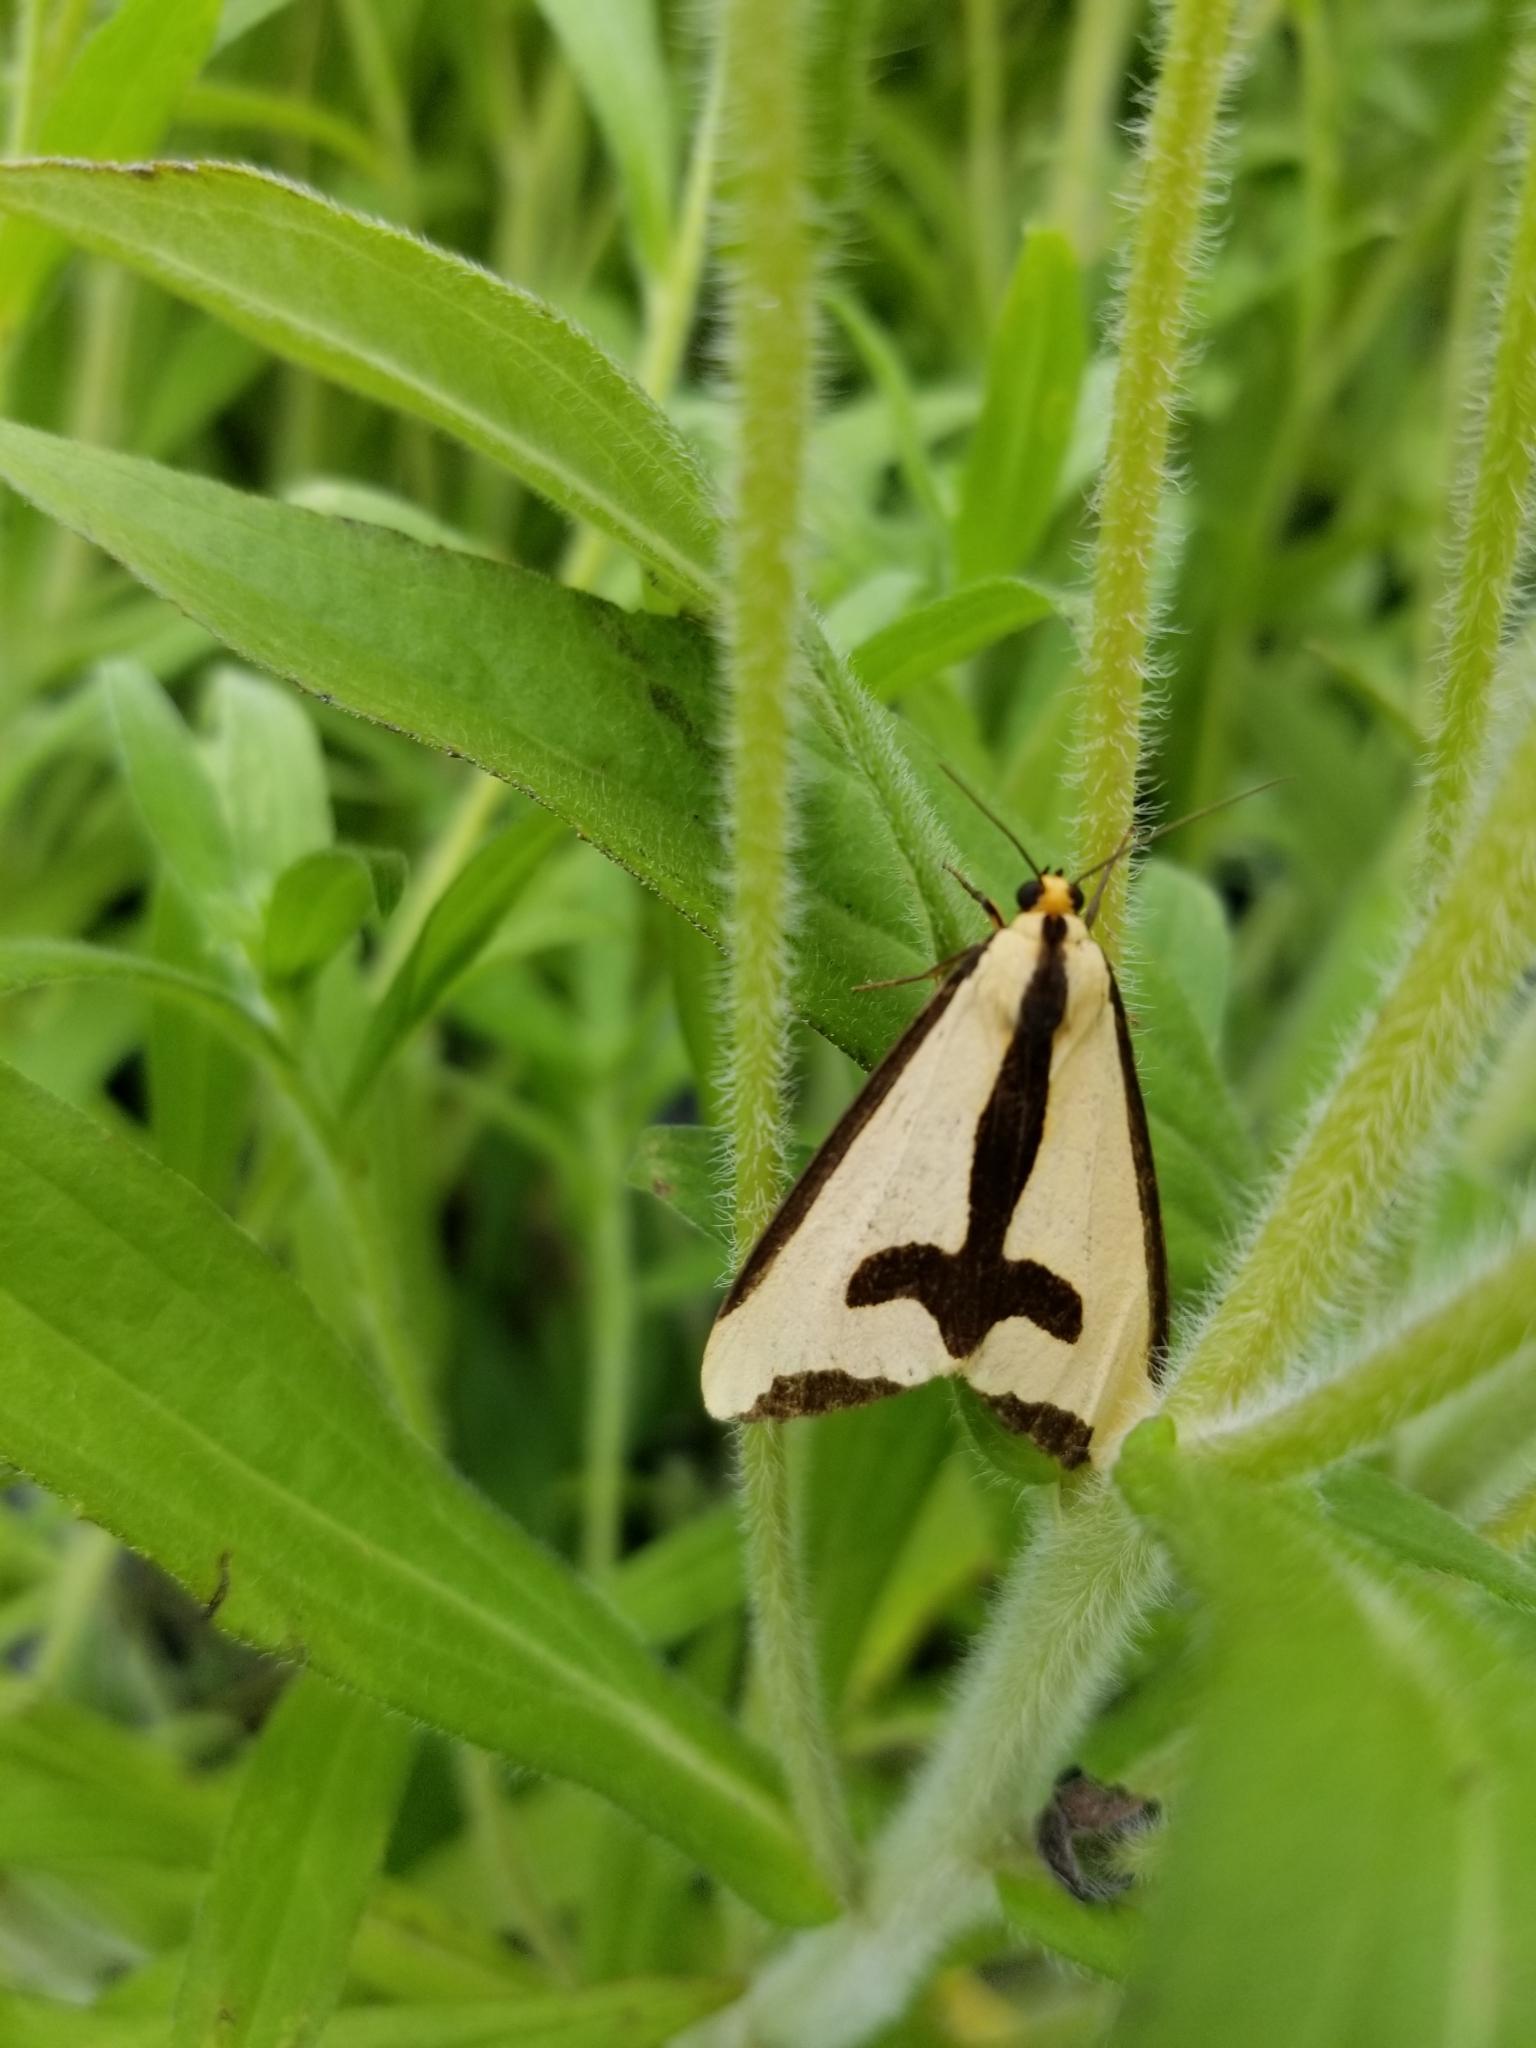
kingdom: Animalia
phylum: Arthropoda
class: Insecta
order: Lepidoptera
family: Erebidae
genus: Haploa
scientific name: Haploa clymene
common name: Clymene moth
